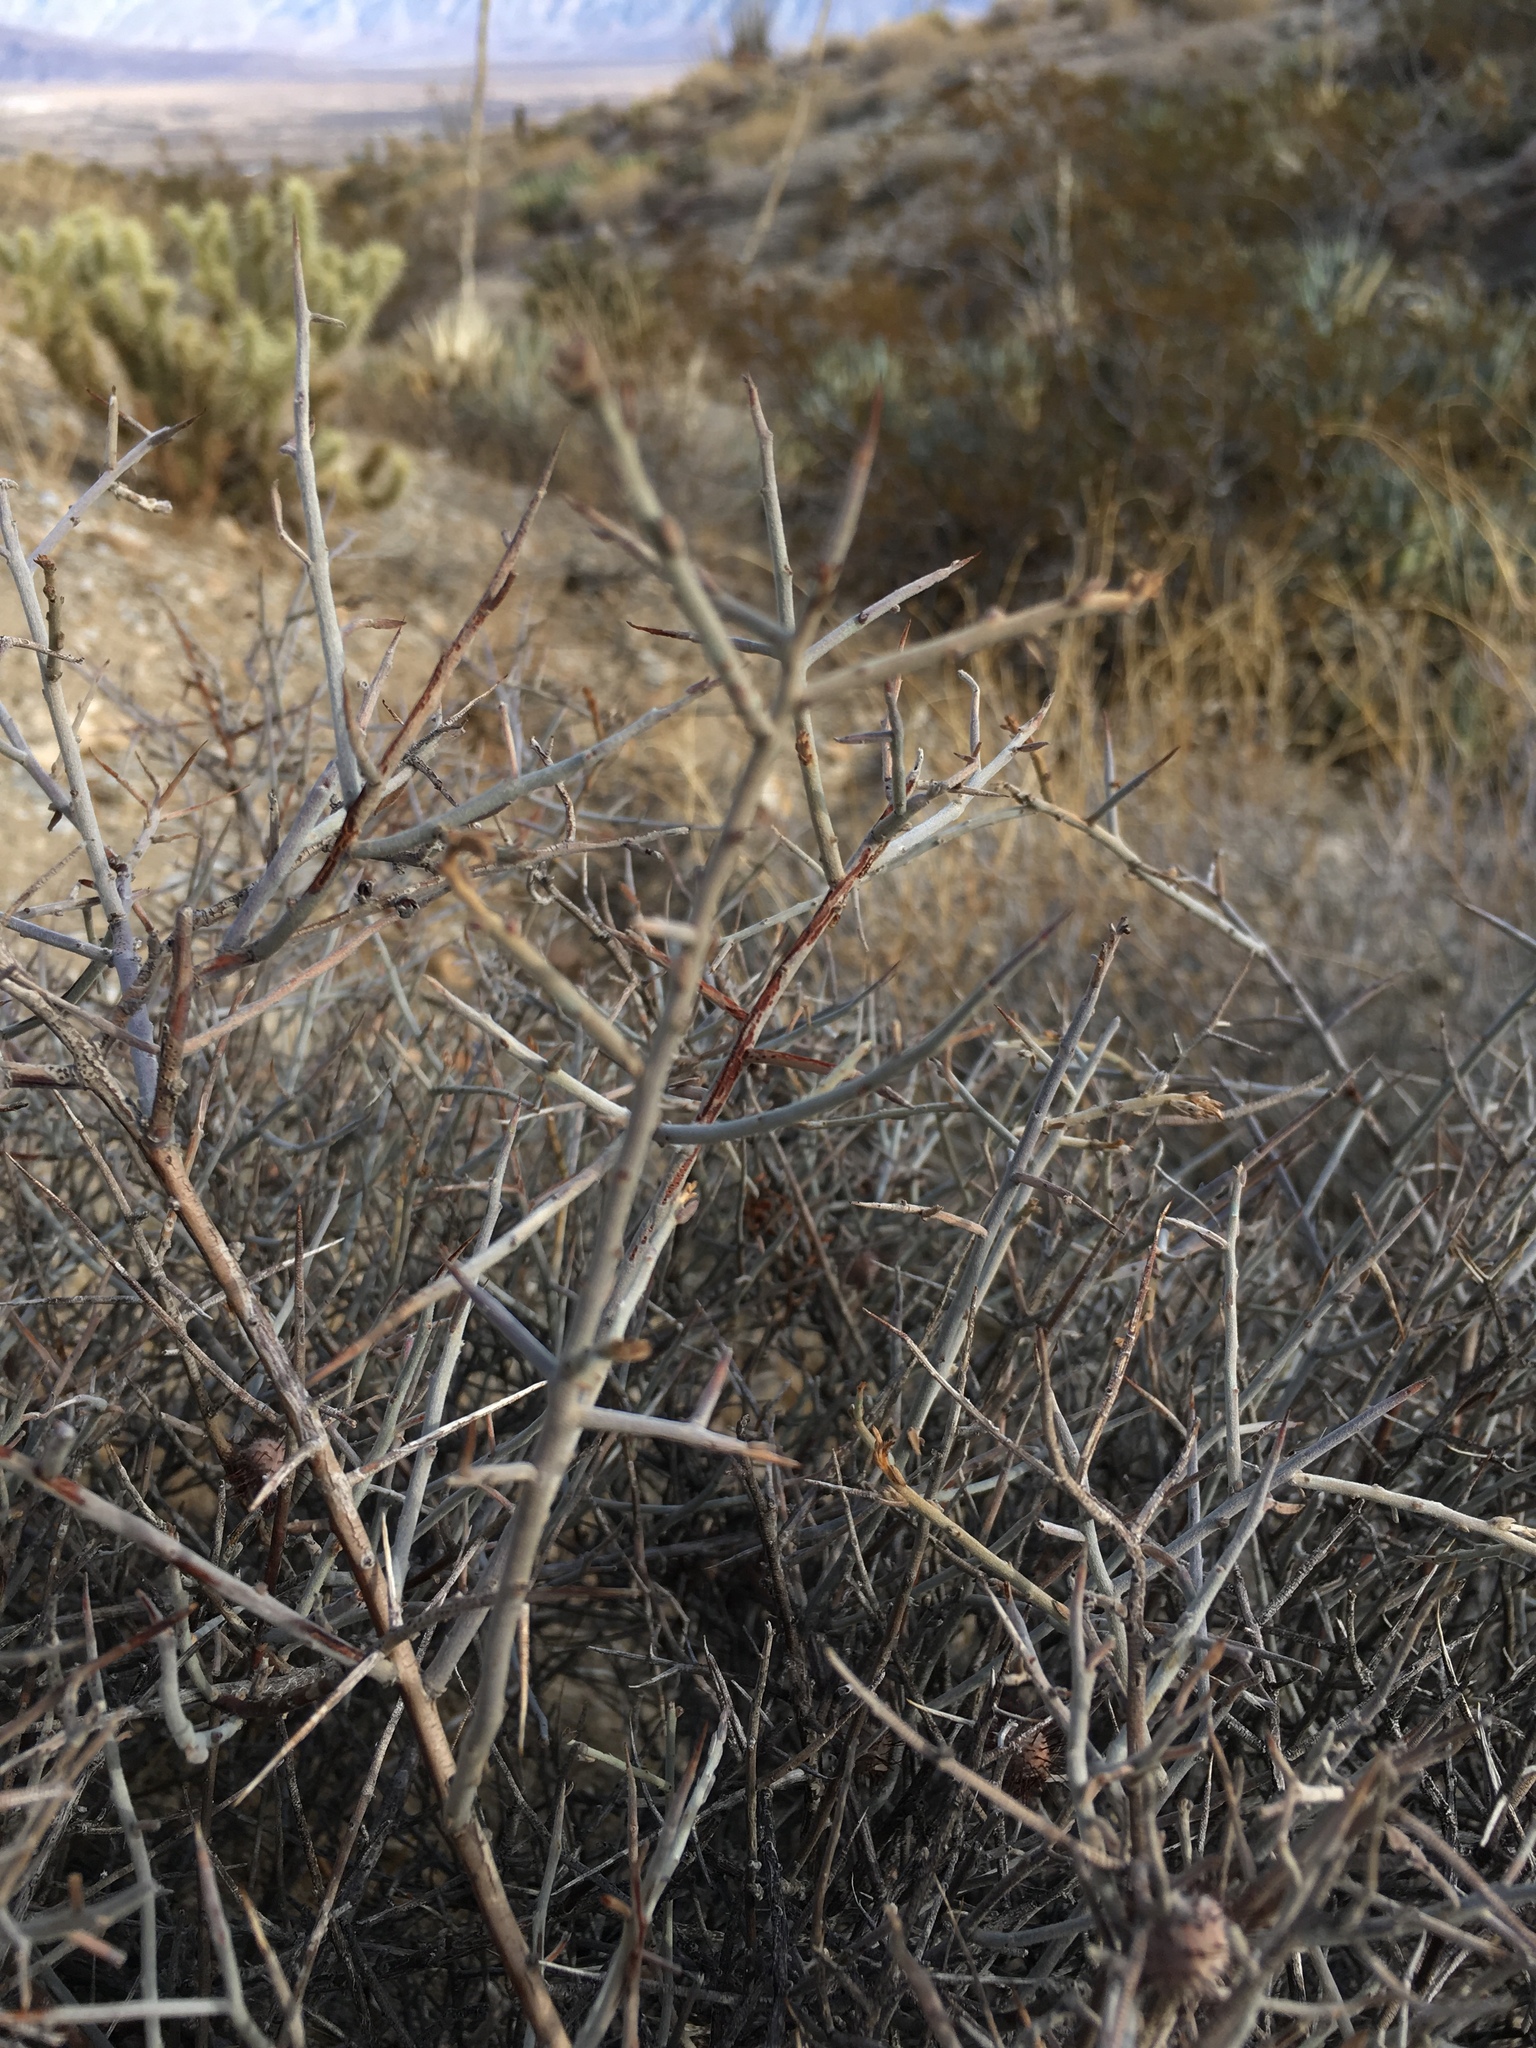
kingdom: Plantae
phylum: Tracheophyta
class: Magnoliopsida
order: Zygophyllales
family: Krameriaceae
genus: Krameria
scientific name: Krameria bicolor
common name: White ratany
